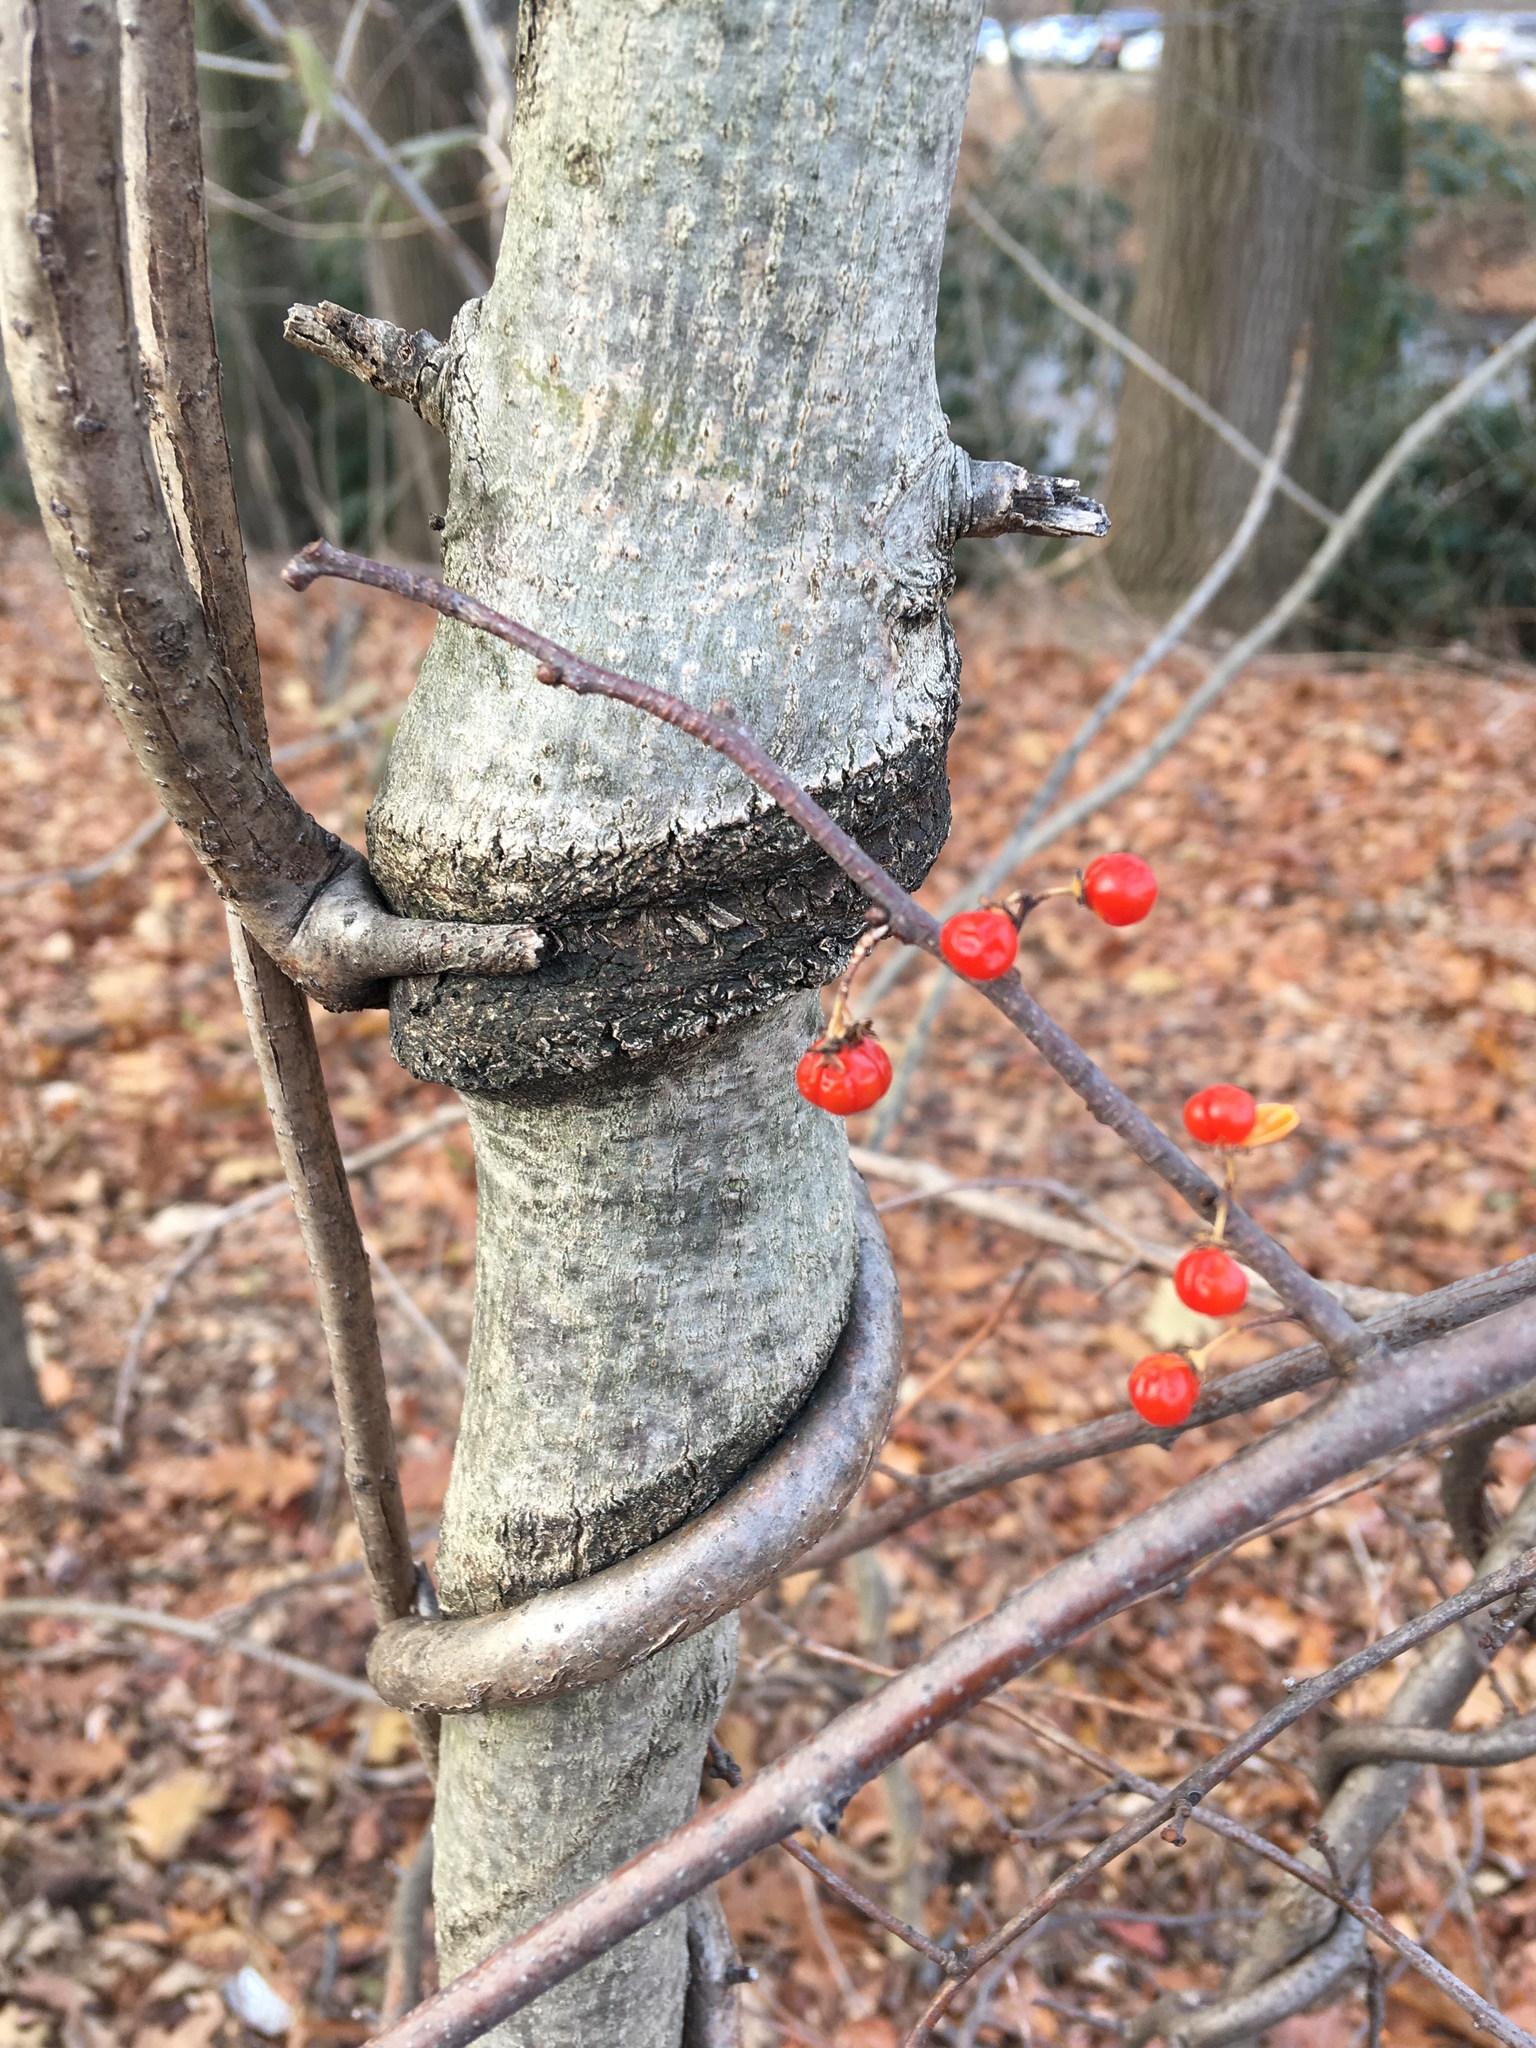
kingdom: Plantae
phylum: Tracheophyta
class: Magnoliopsida
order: Celastrales
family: Celastraceae
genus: Celastrus
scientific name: Celastrus orbiculatus
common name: Oriental bittersweet
